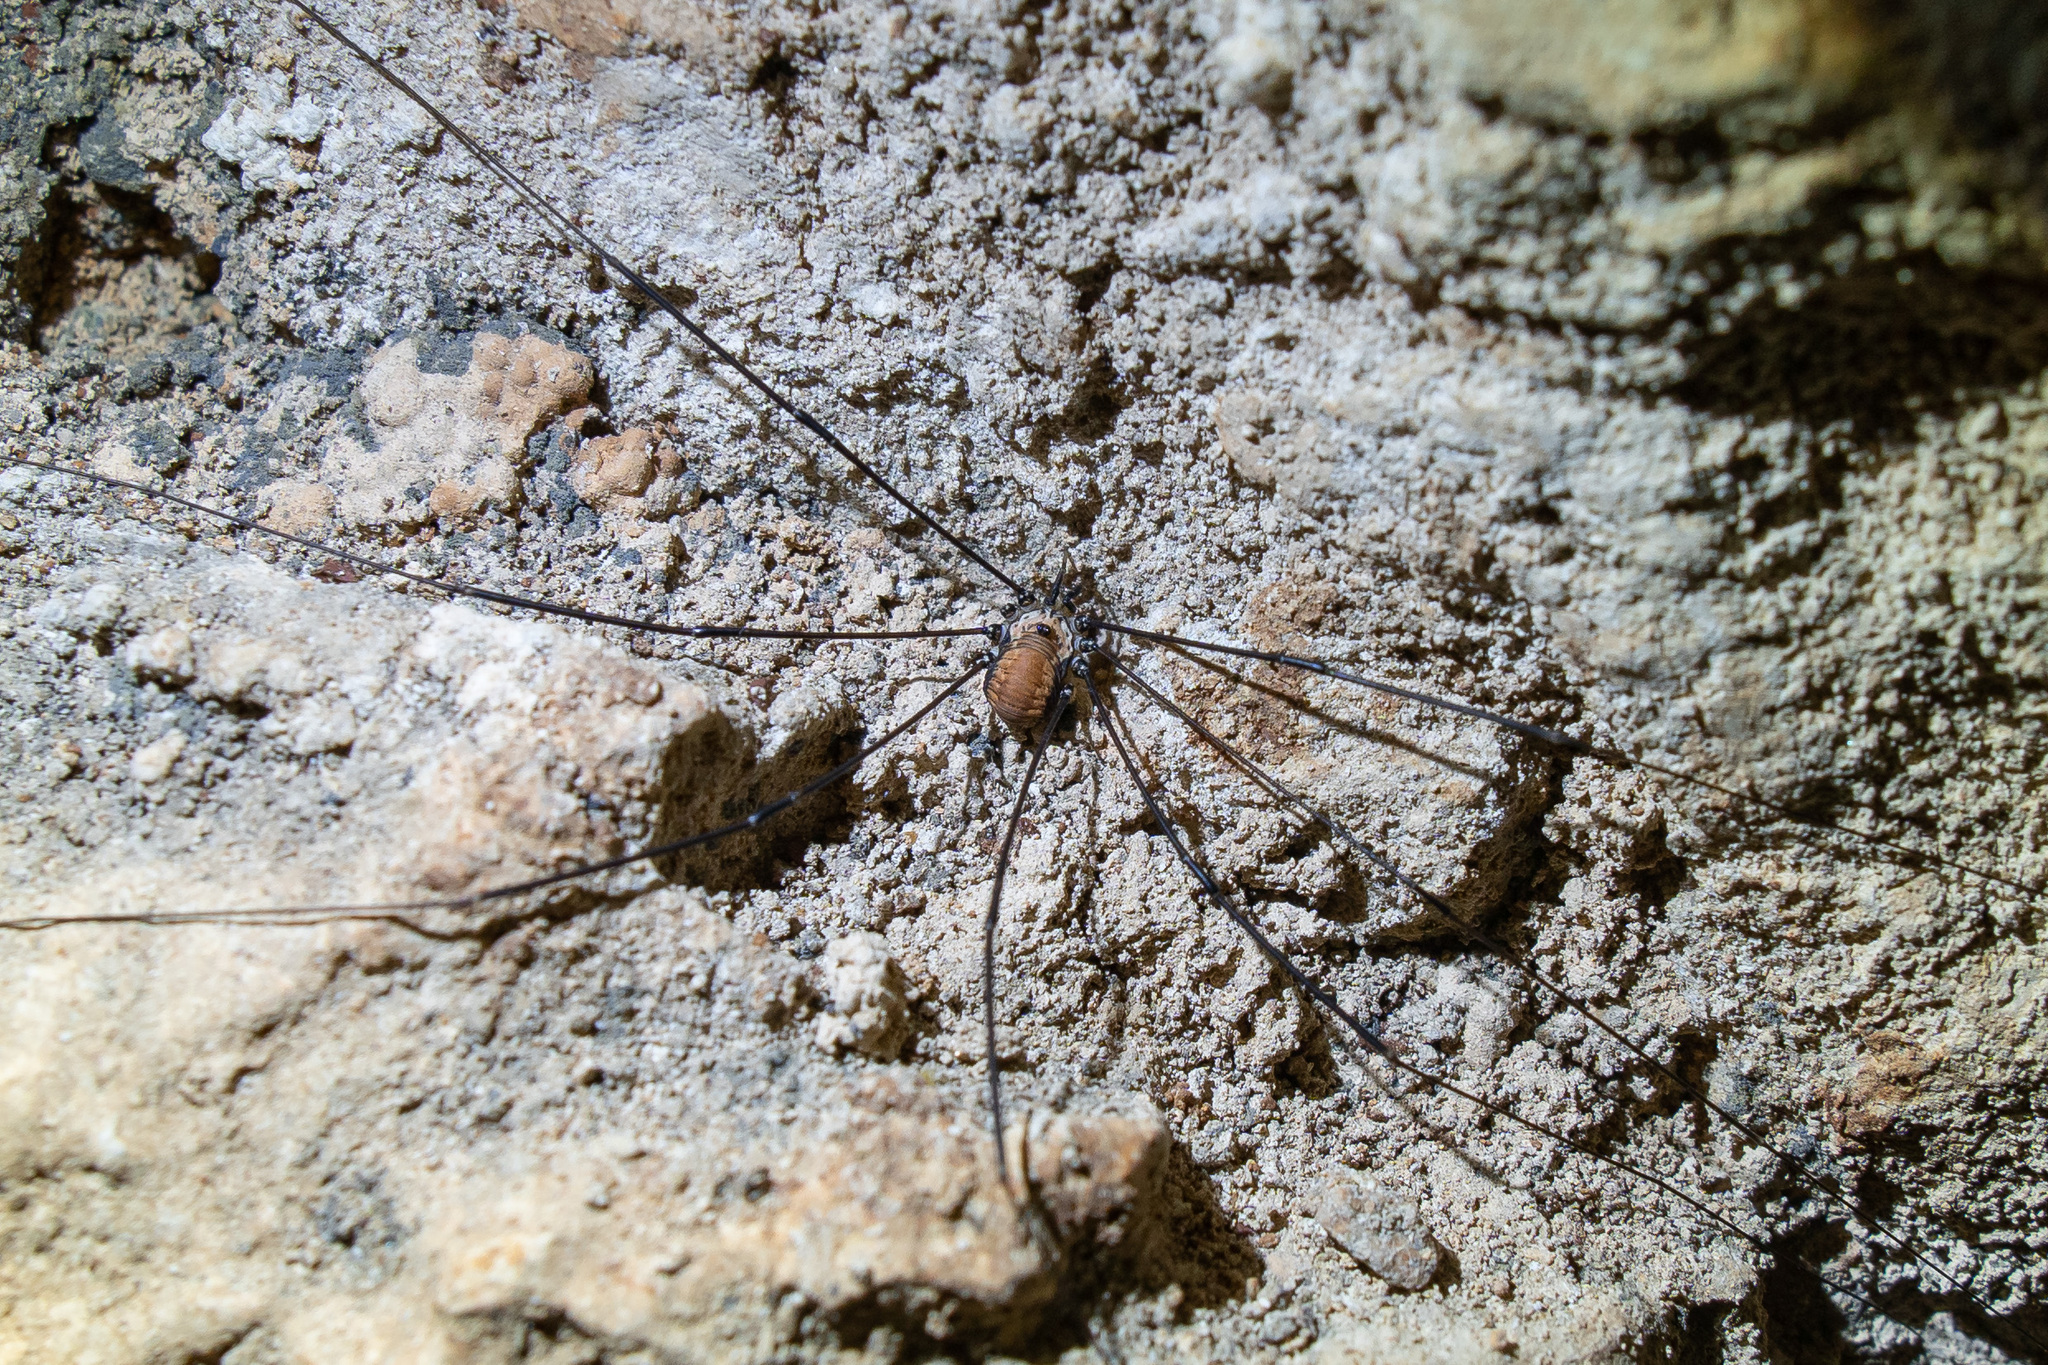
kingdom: Animalia
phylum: Arthropoda
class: Arachnida
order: Opiliones
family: Sclerosomatidae
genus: Leiobunum
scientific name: Leiobunum limbatum
